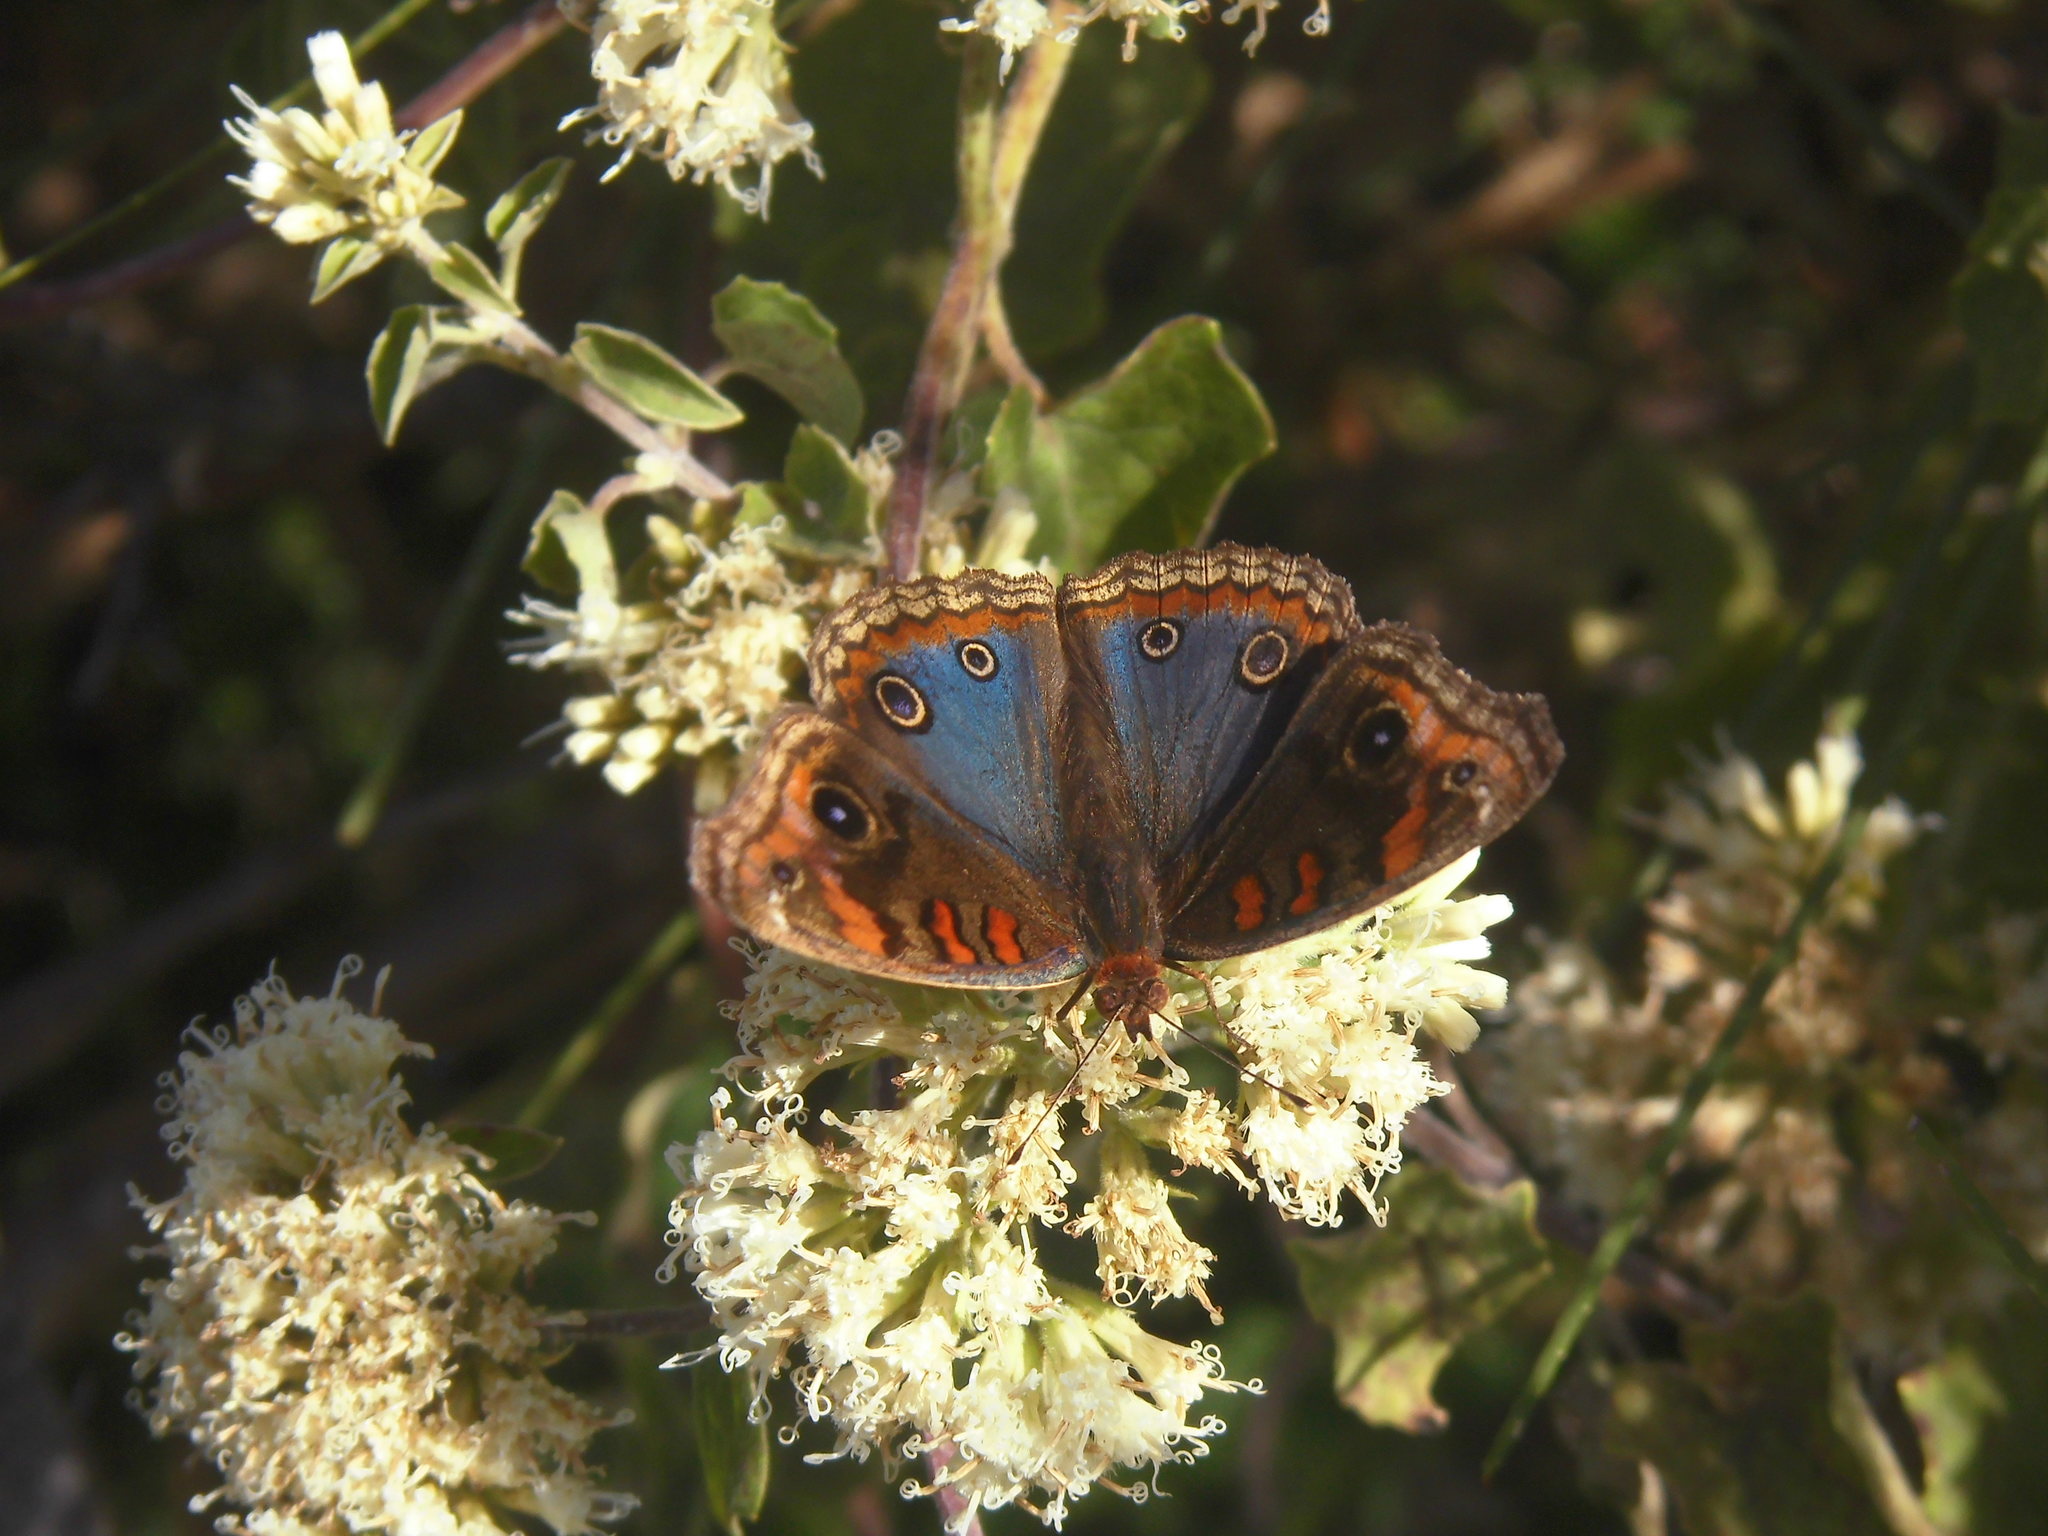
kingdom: Animalia
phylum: Arthropoda
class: Insecta
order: Lepidoptera
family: Nymphalidae
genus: Junonia
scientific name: Junonia lavinia
